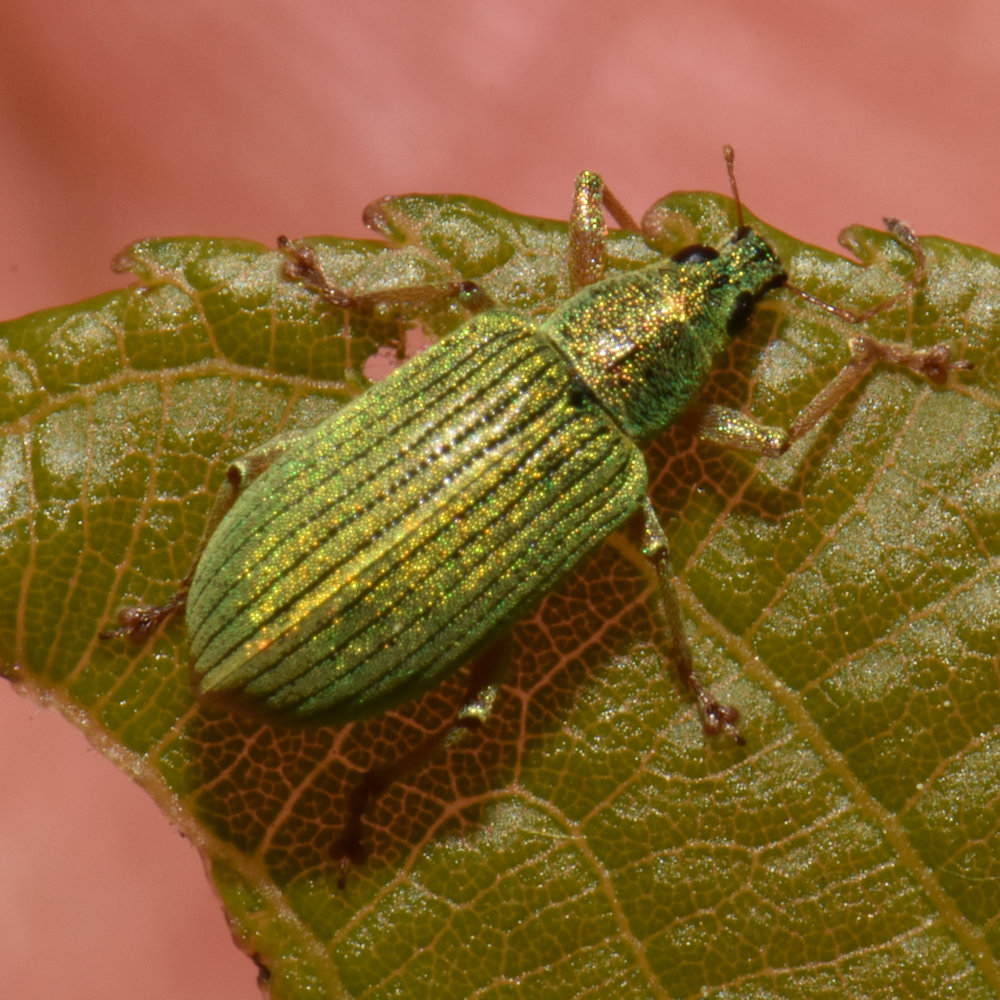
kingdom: Animalia
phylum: Arthropoda
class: Insecta
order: Coleoptera
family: Curculionidae
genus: Polydrusus
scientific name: Polydrusus formosus
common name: Weevil
